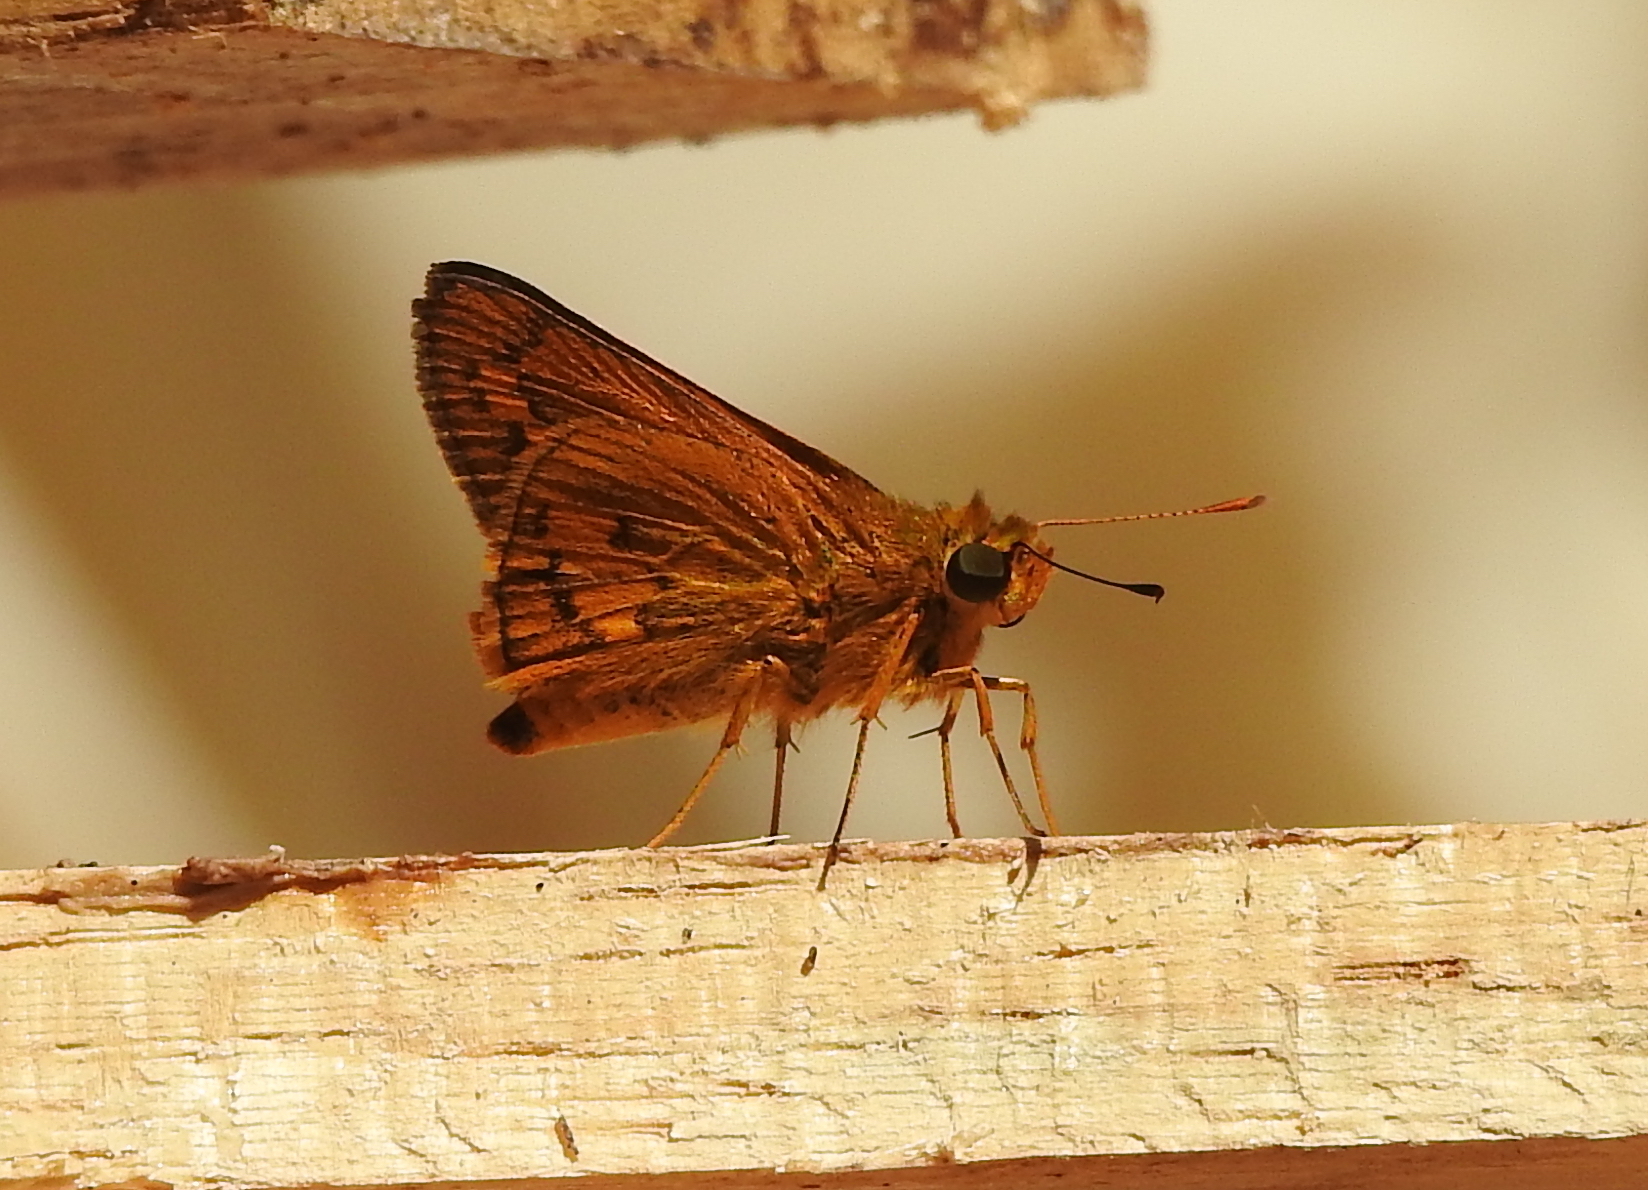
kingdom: Animalia
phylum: Arthropoda
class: Insecta
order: Lepidoptera
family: Hesperiidae
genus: Telicota
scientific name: Telicota augias
